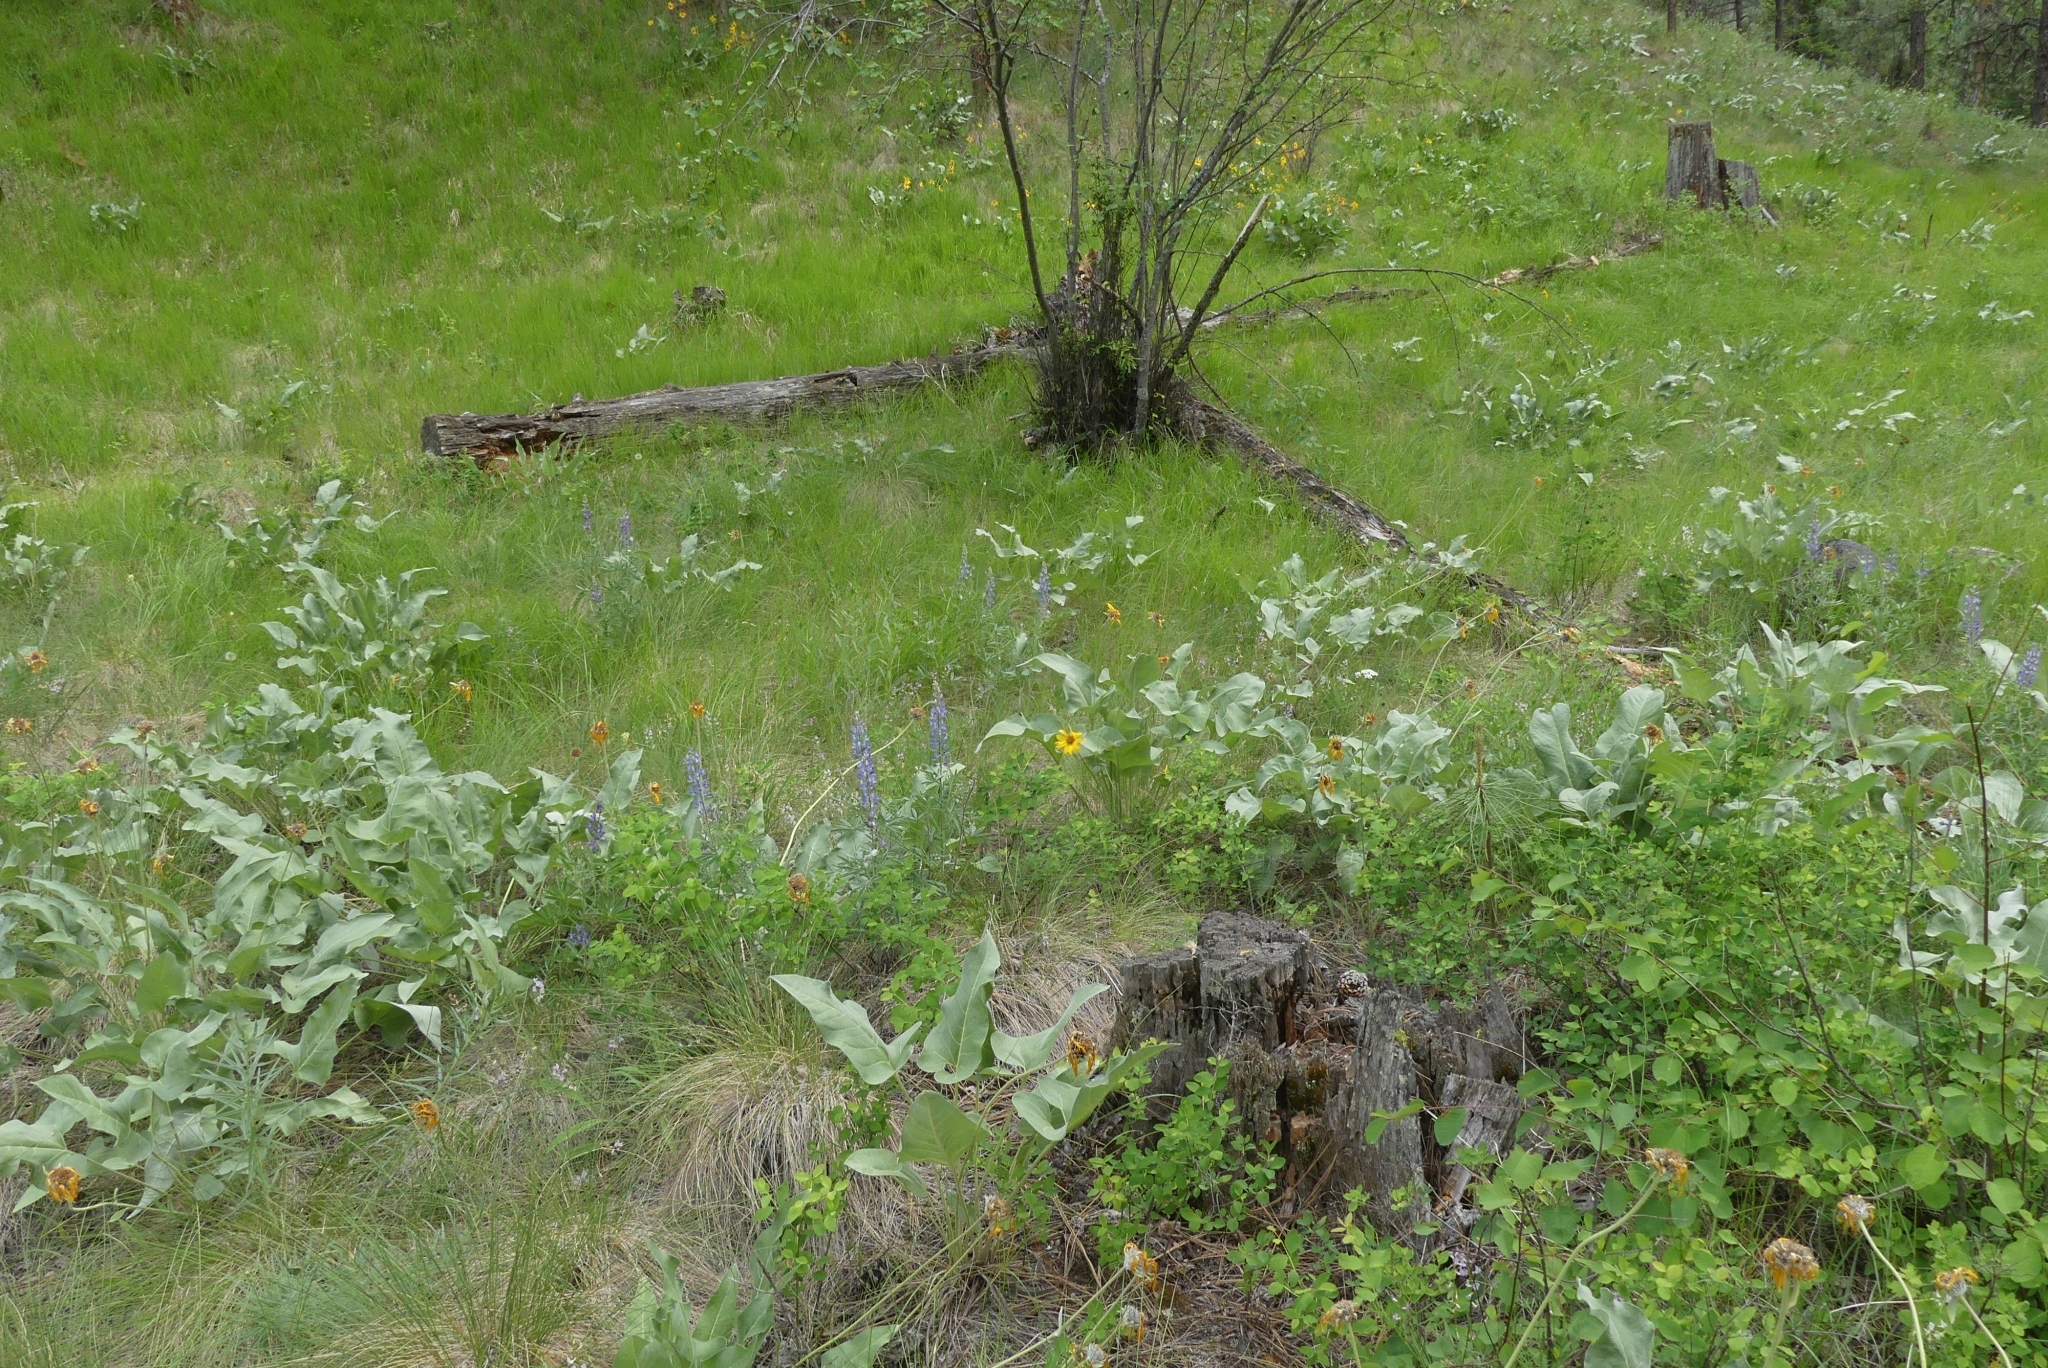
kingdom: Plantae
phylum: Tracheophyta
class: Magnoliopsida
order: Asterales
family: Asteraceae
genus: Wyethia
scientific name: Wyethia sagittata
